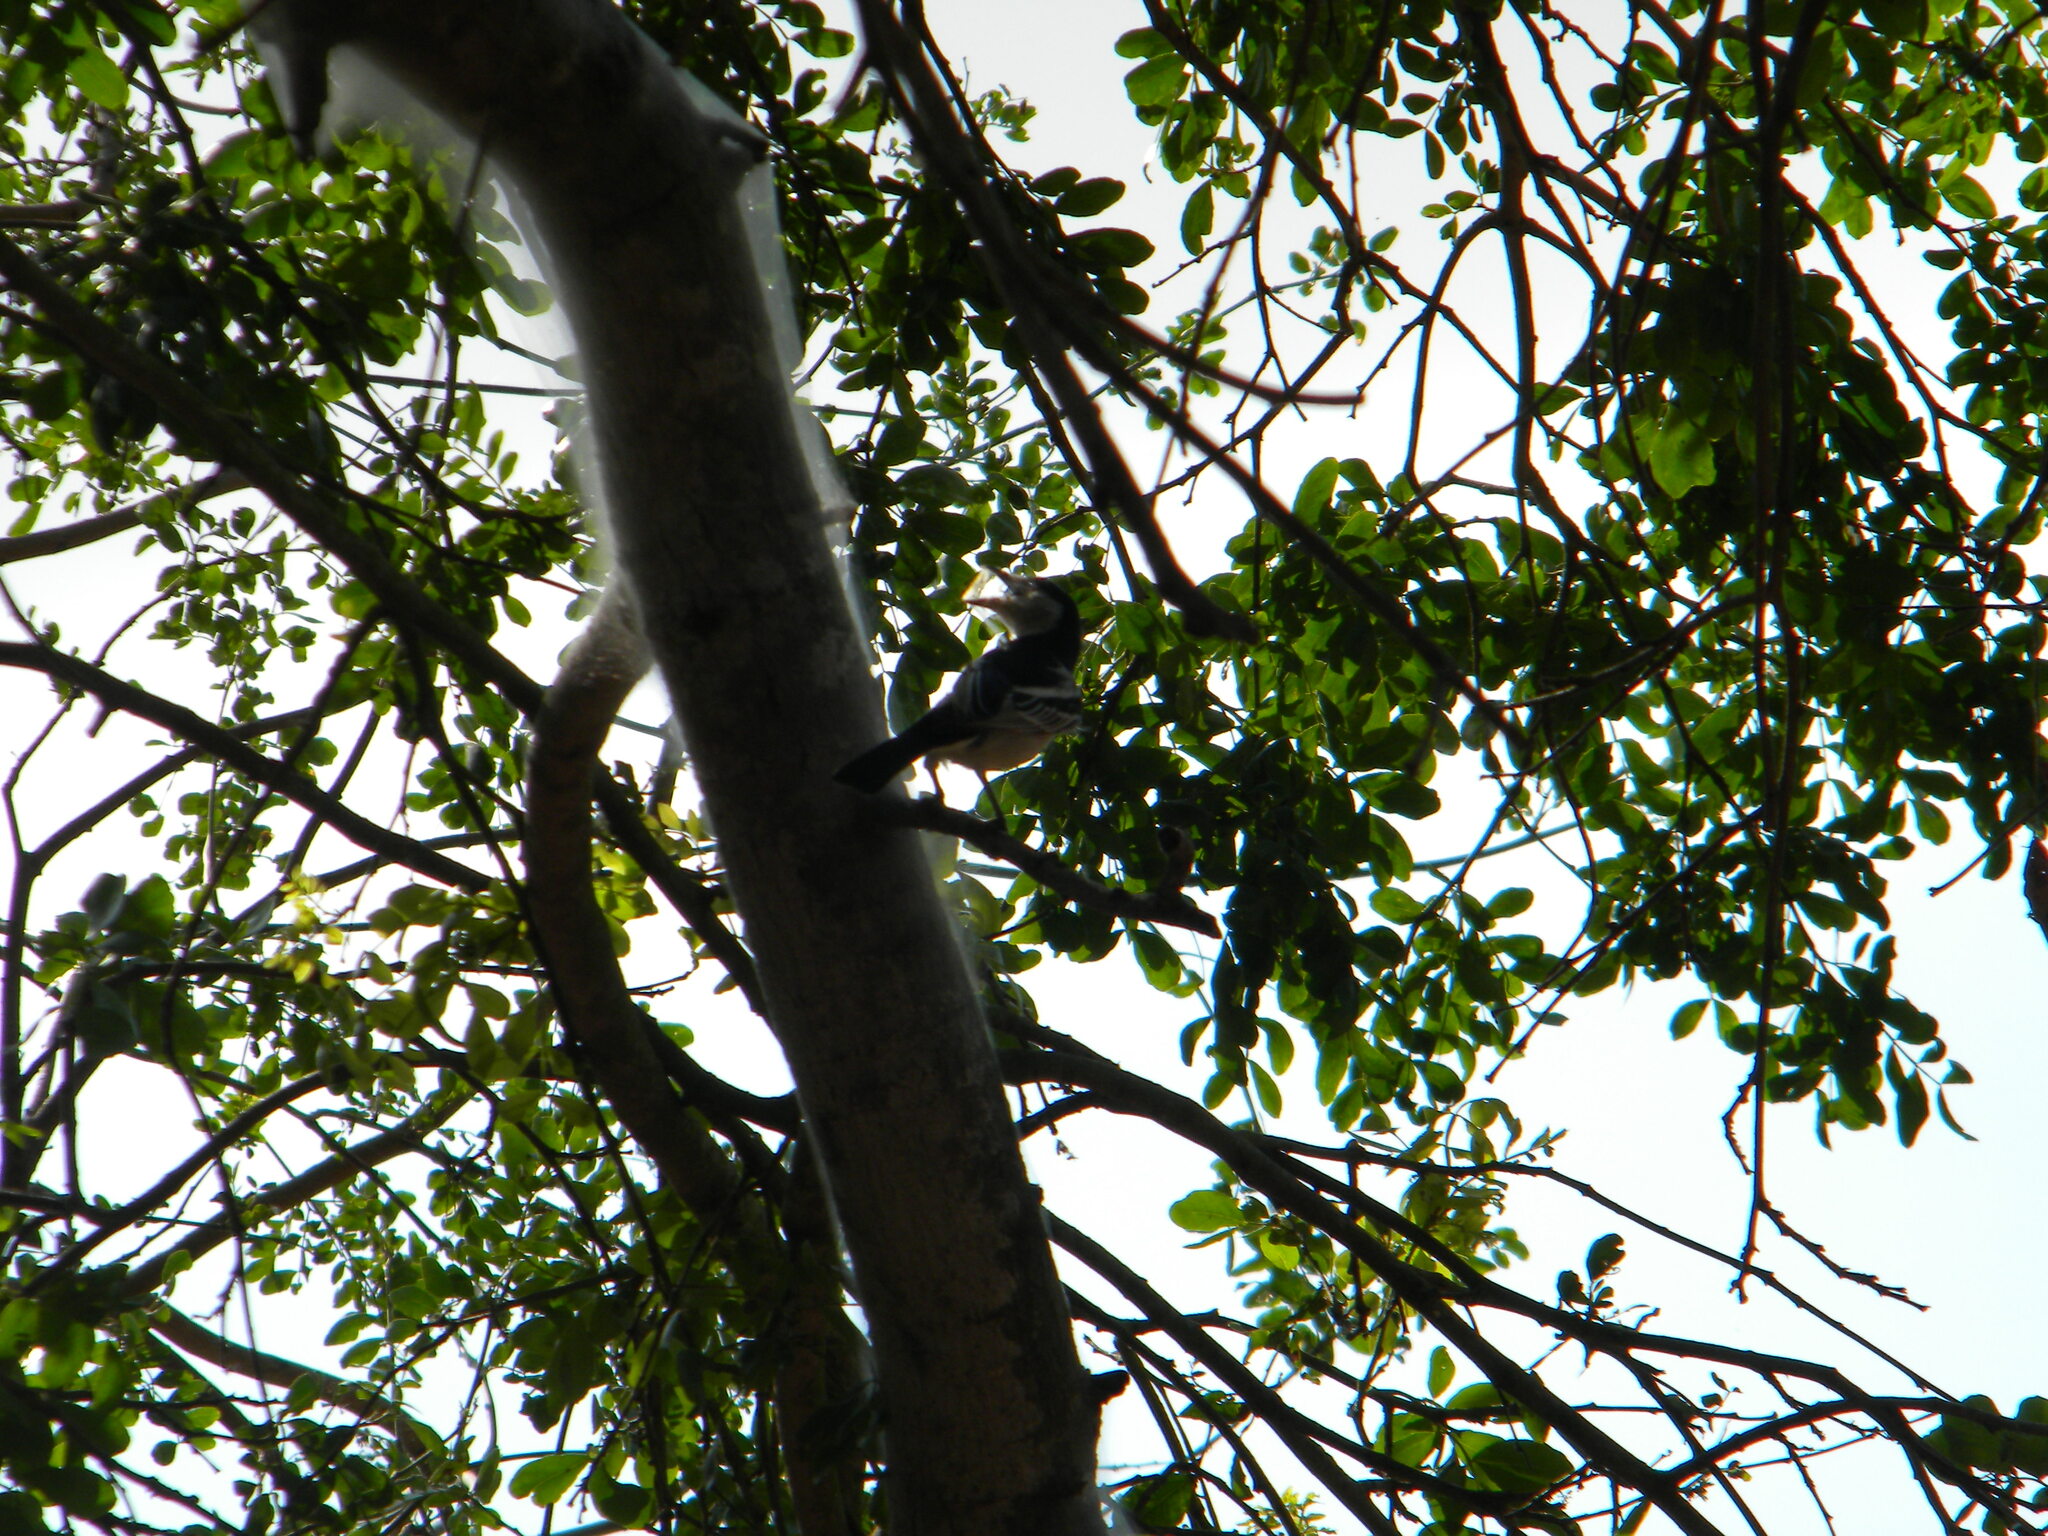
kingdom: Animalia
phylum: Chordata
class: Aves
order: Passeriformes
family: Malaconotidae
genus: Dryoscopus
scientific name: Dryoscopus cubla
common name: Black-backed puffback
